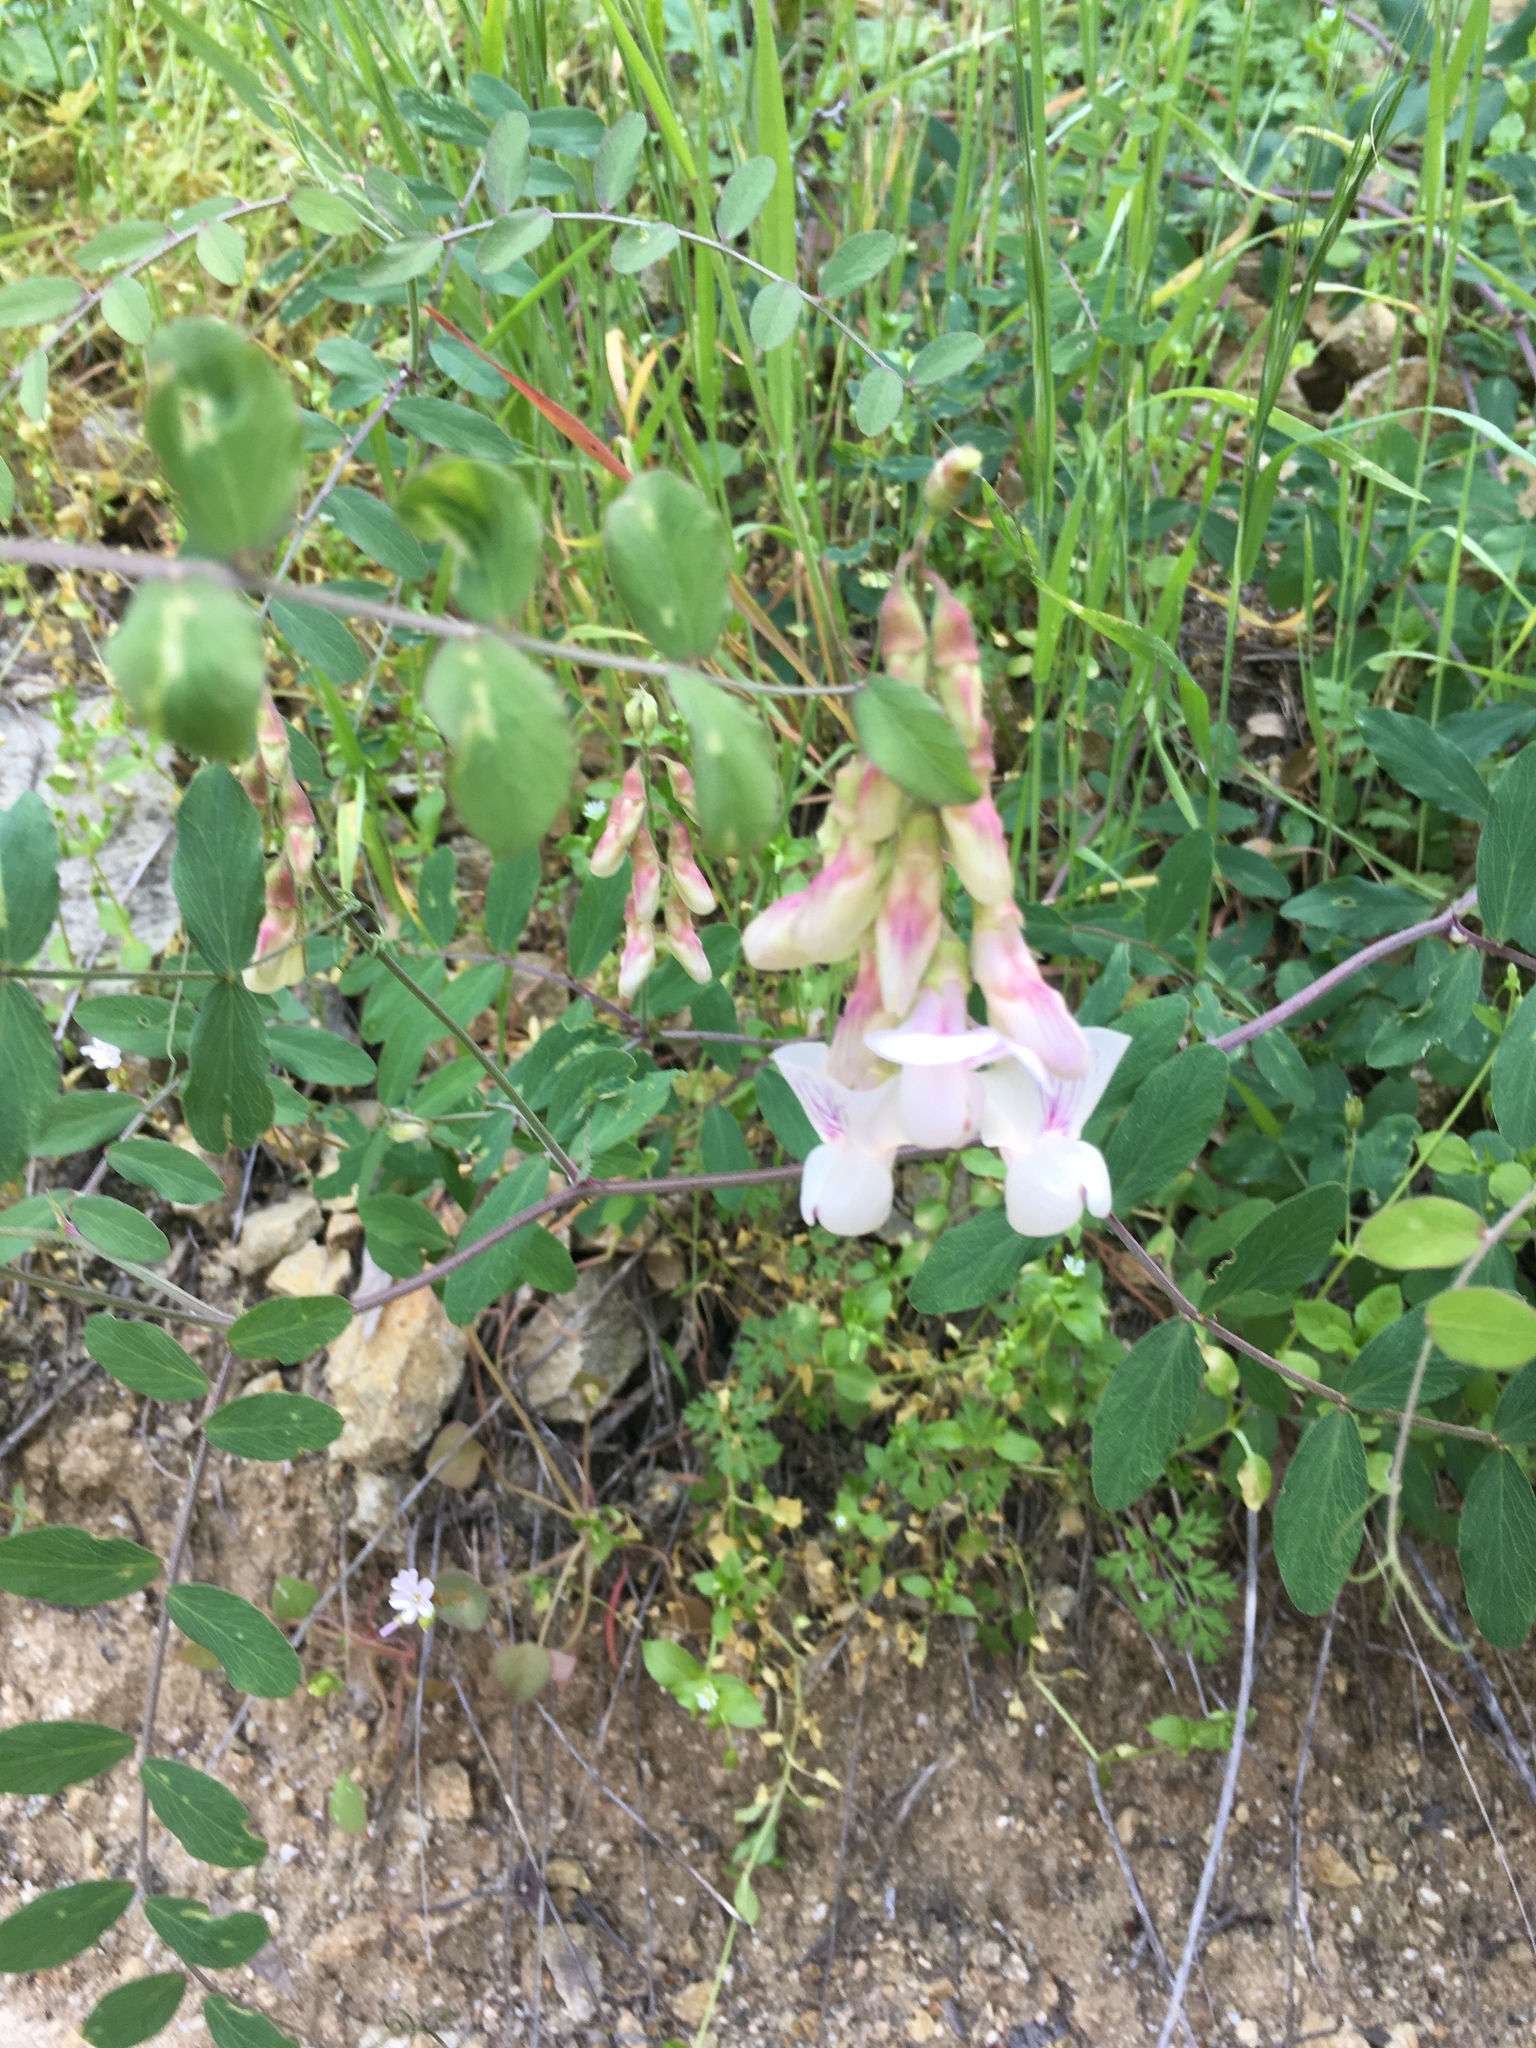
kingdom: Plantae
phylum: Tracheophyta
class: Magnoliopsida
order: Fabales
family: Fabaceae
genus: Lathyrus
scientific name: Lathyrus vestitus
